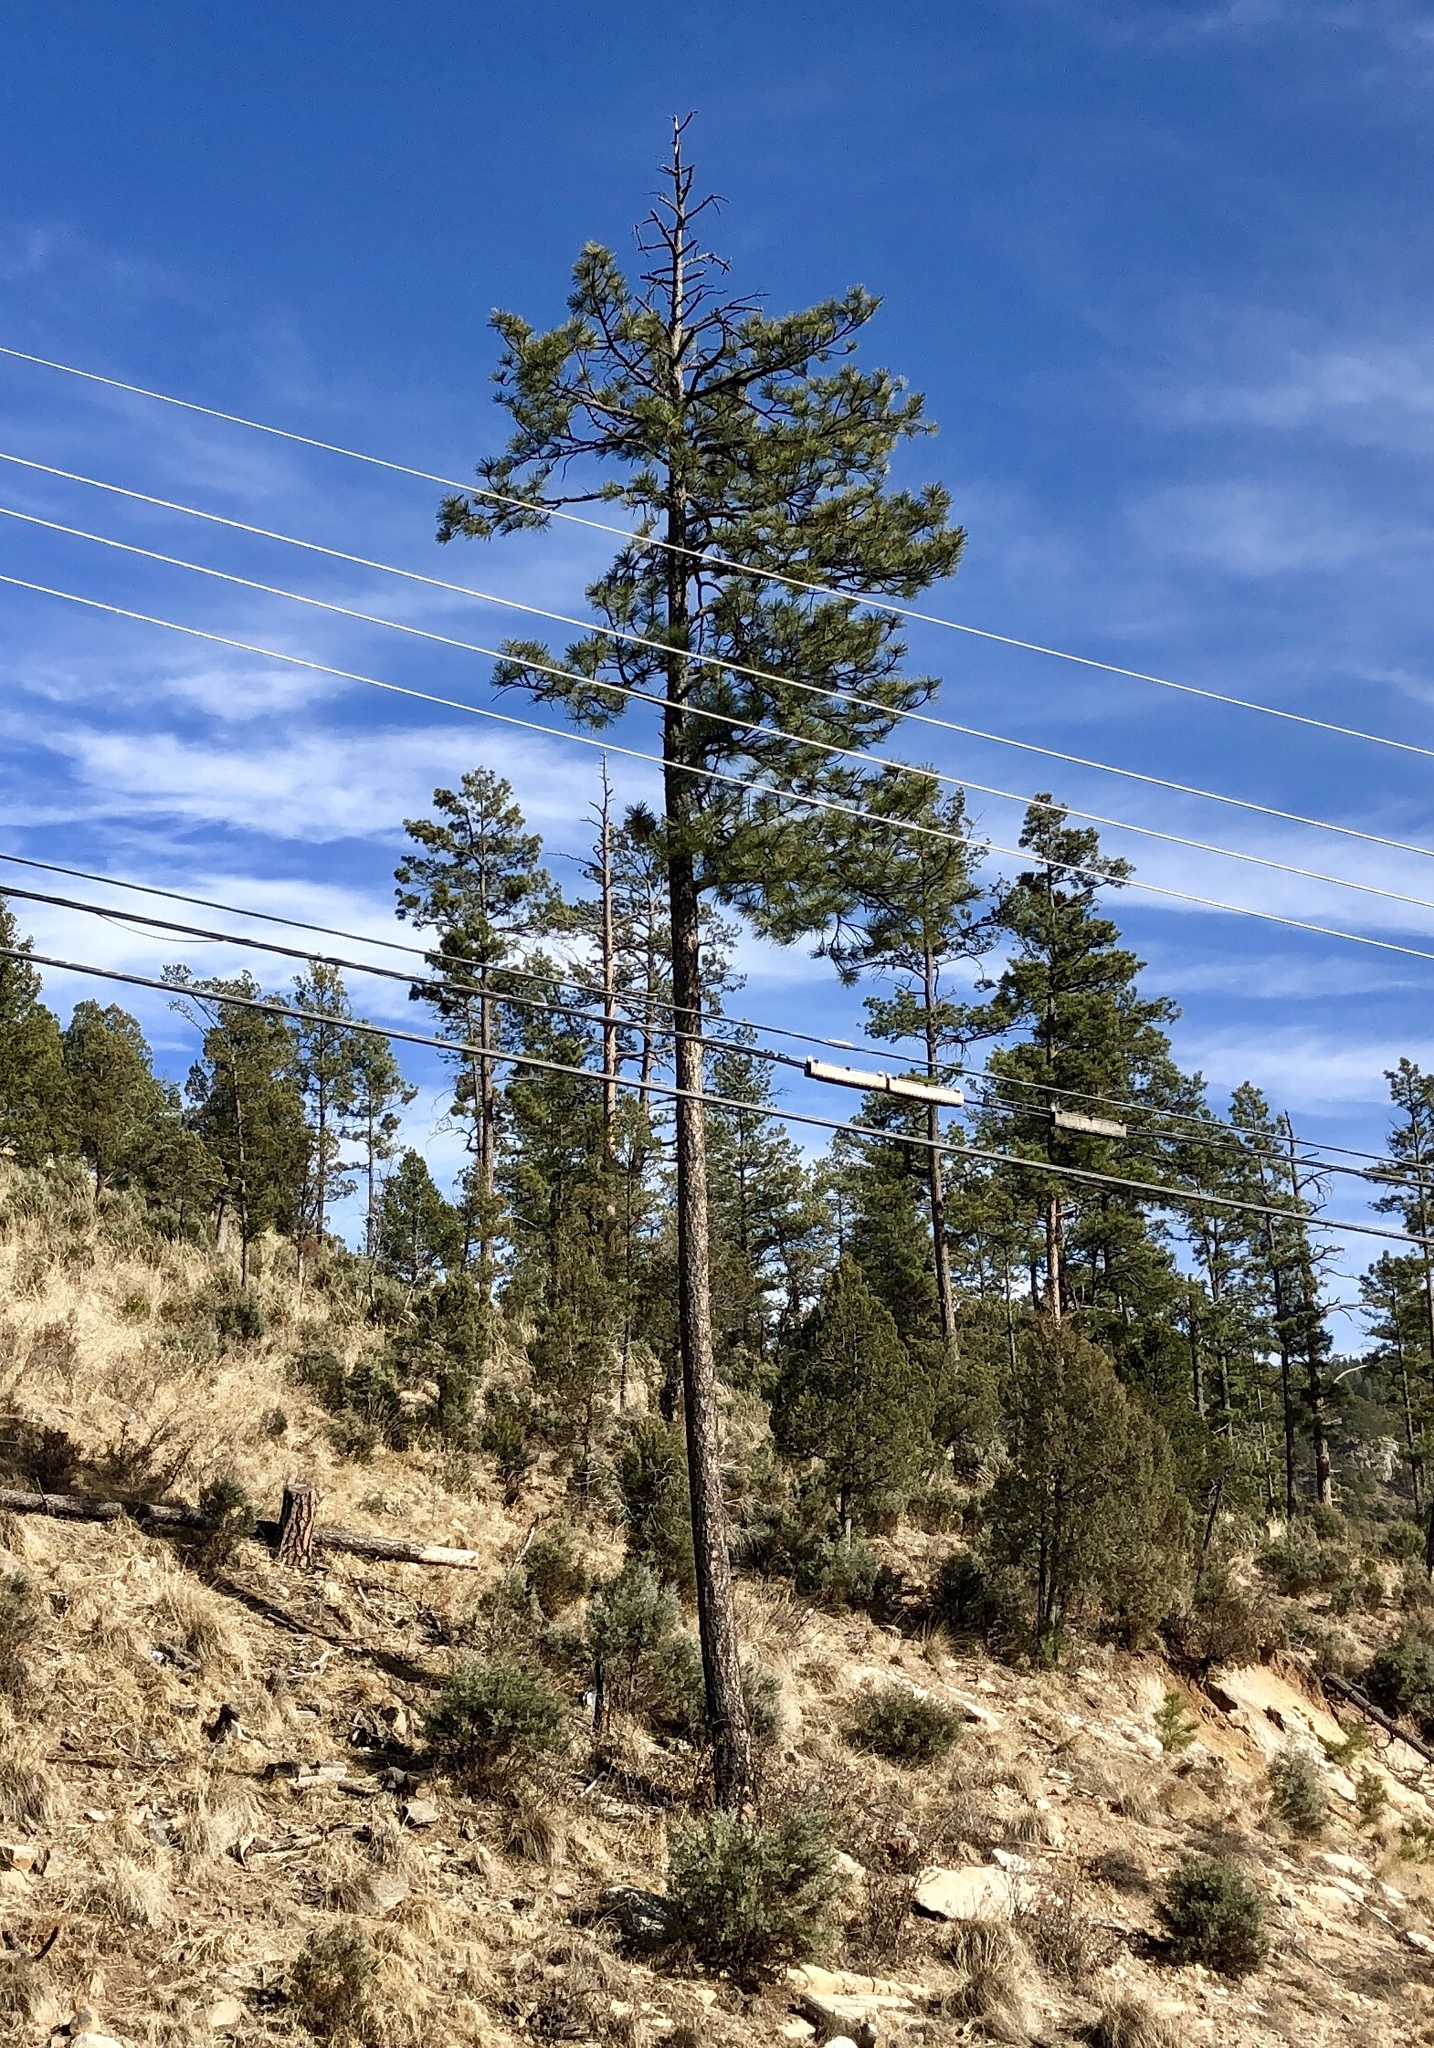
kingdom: Plantae
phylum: Tracheophyta
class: Pinopsida
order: Pinales
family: Pinaceae
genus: Pinus
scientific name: Pinus ponderosa
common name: Western yellow-pine
